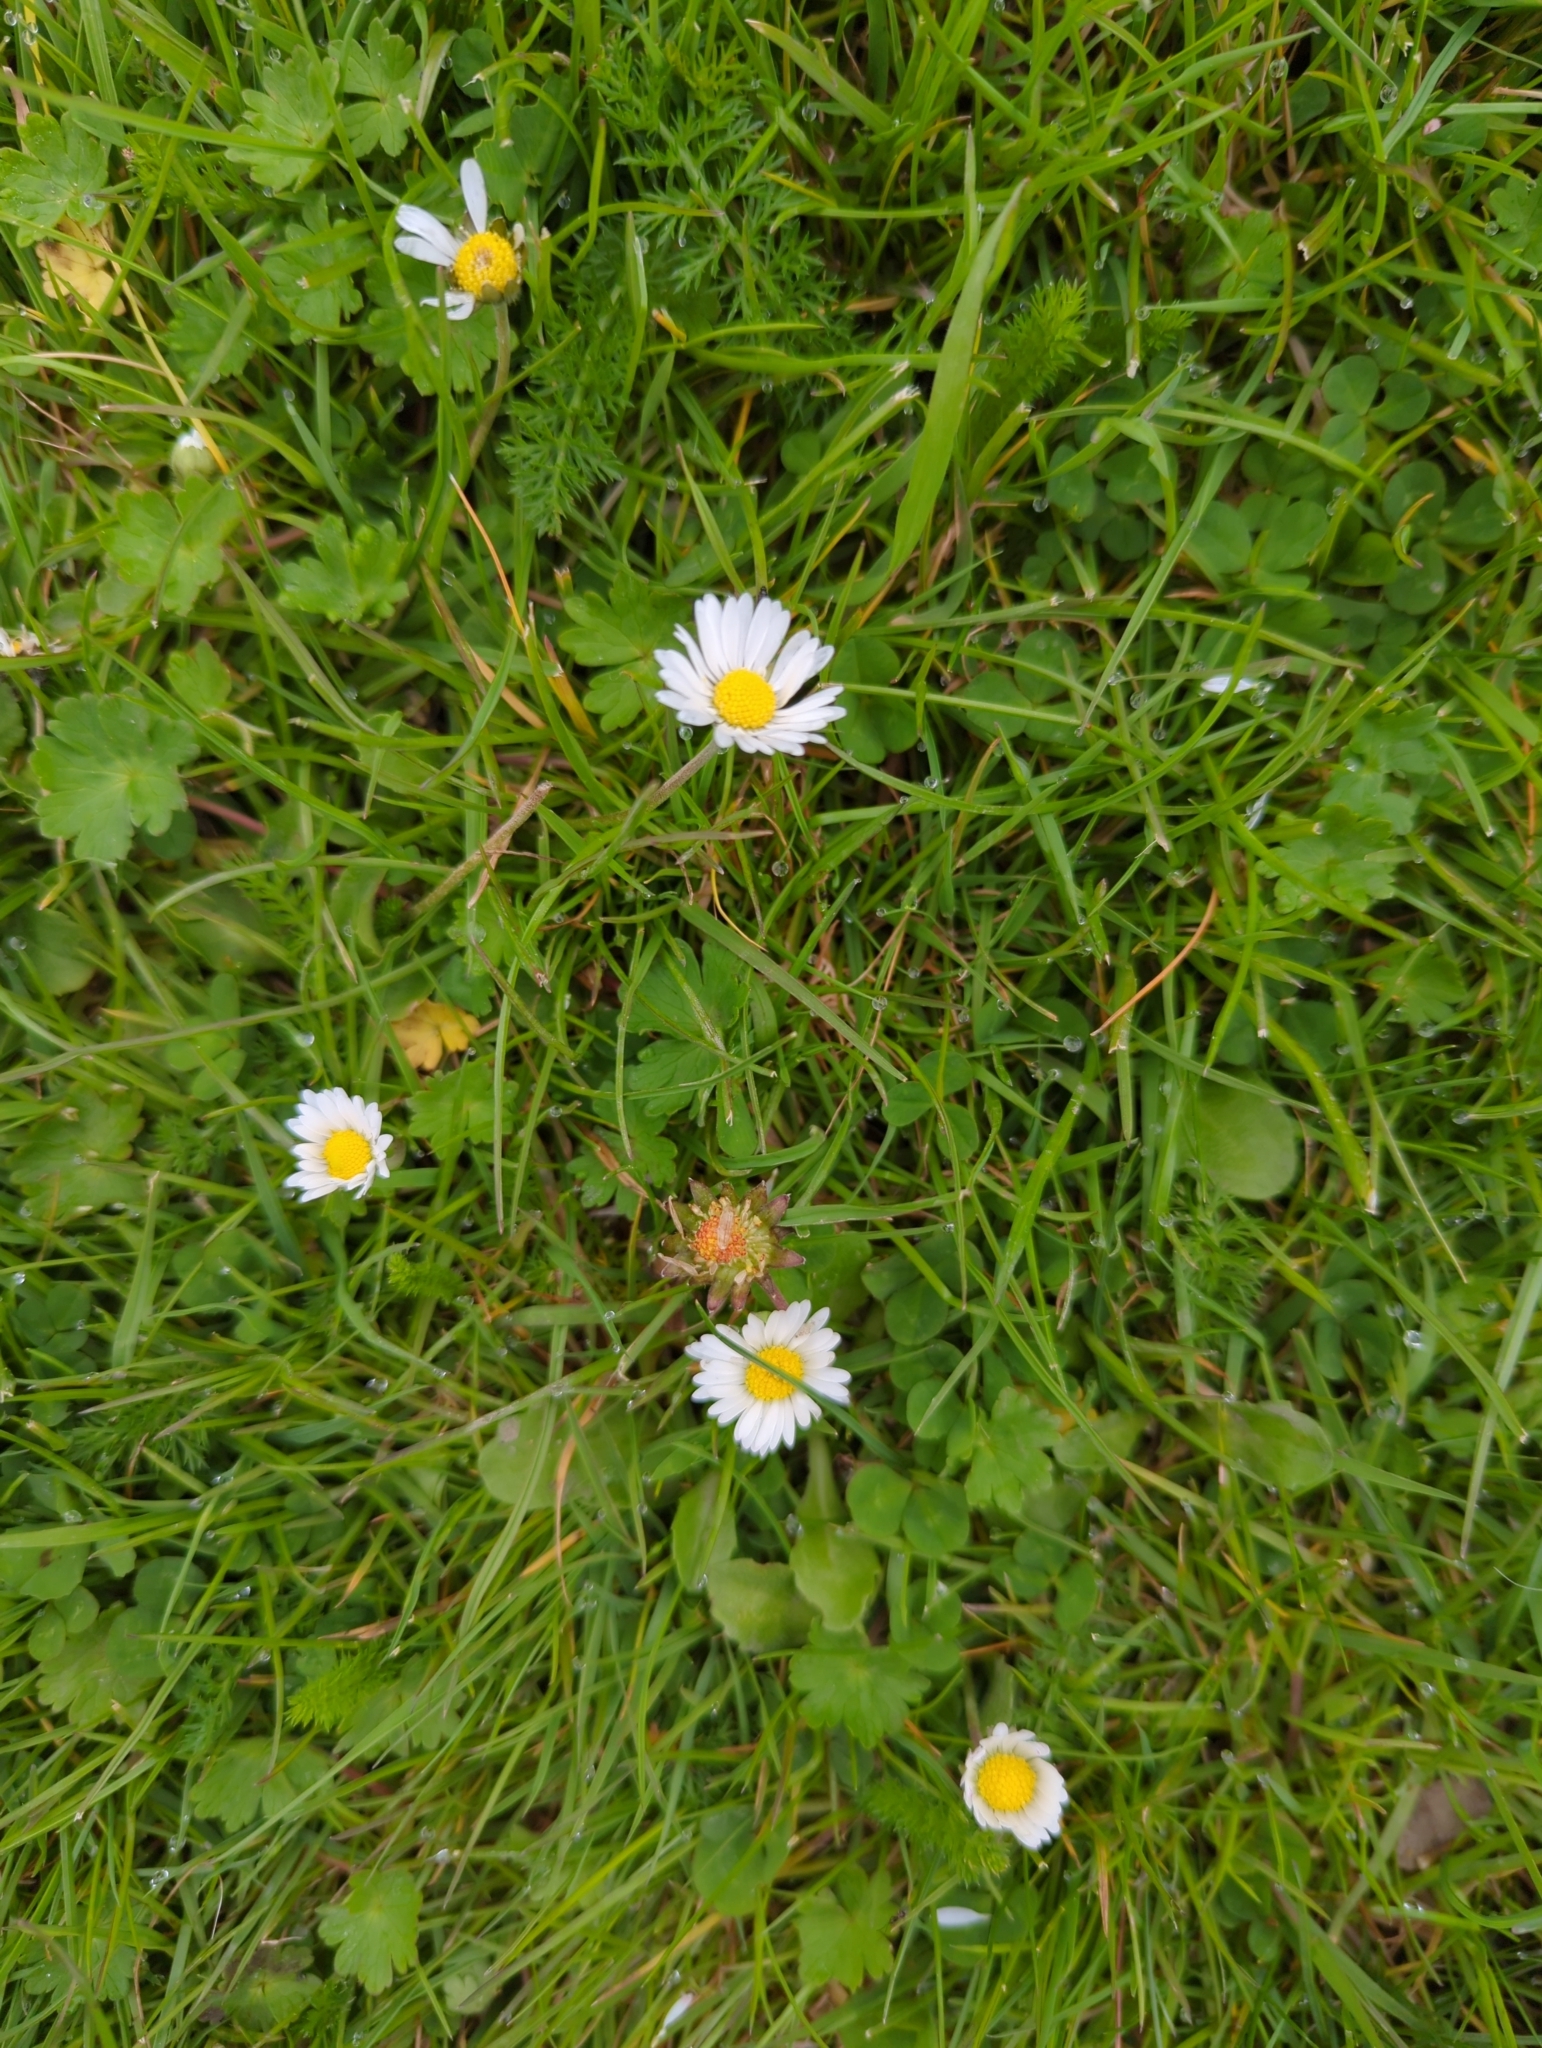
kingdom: Plantae
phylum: Tracheophyta
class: Magnoliopsida
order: Asterales
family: Asteraceae
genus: Bellis
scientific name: Bellis perennis
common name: Lawndaisy
